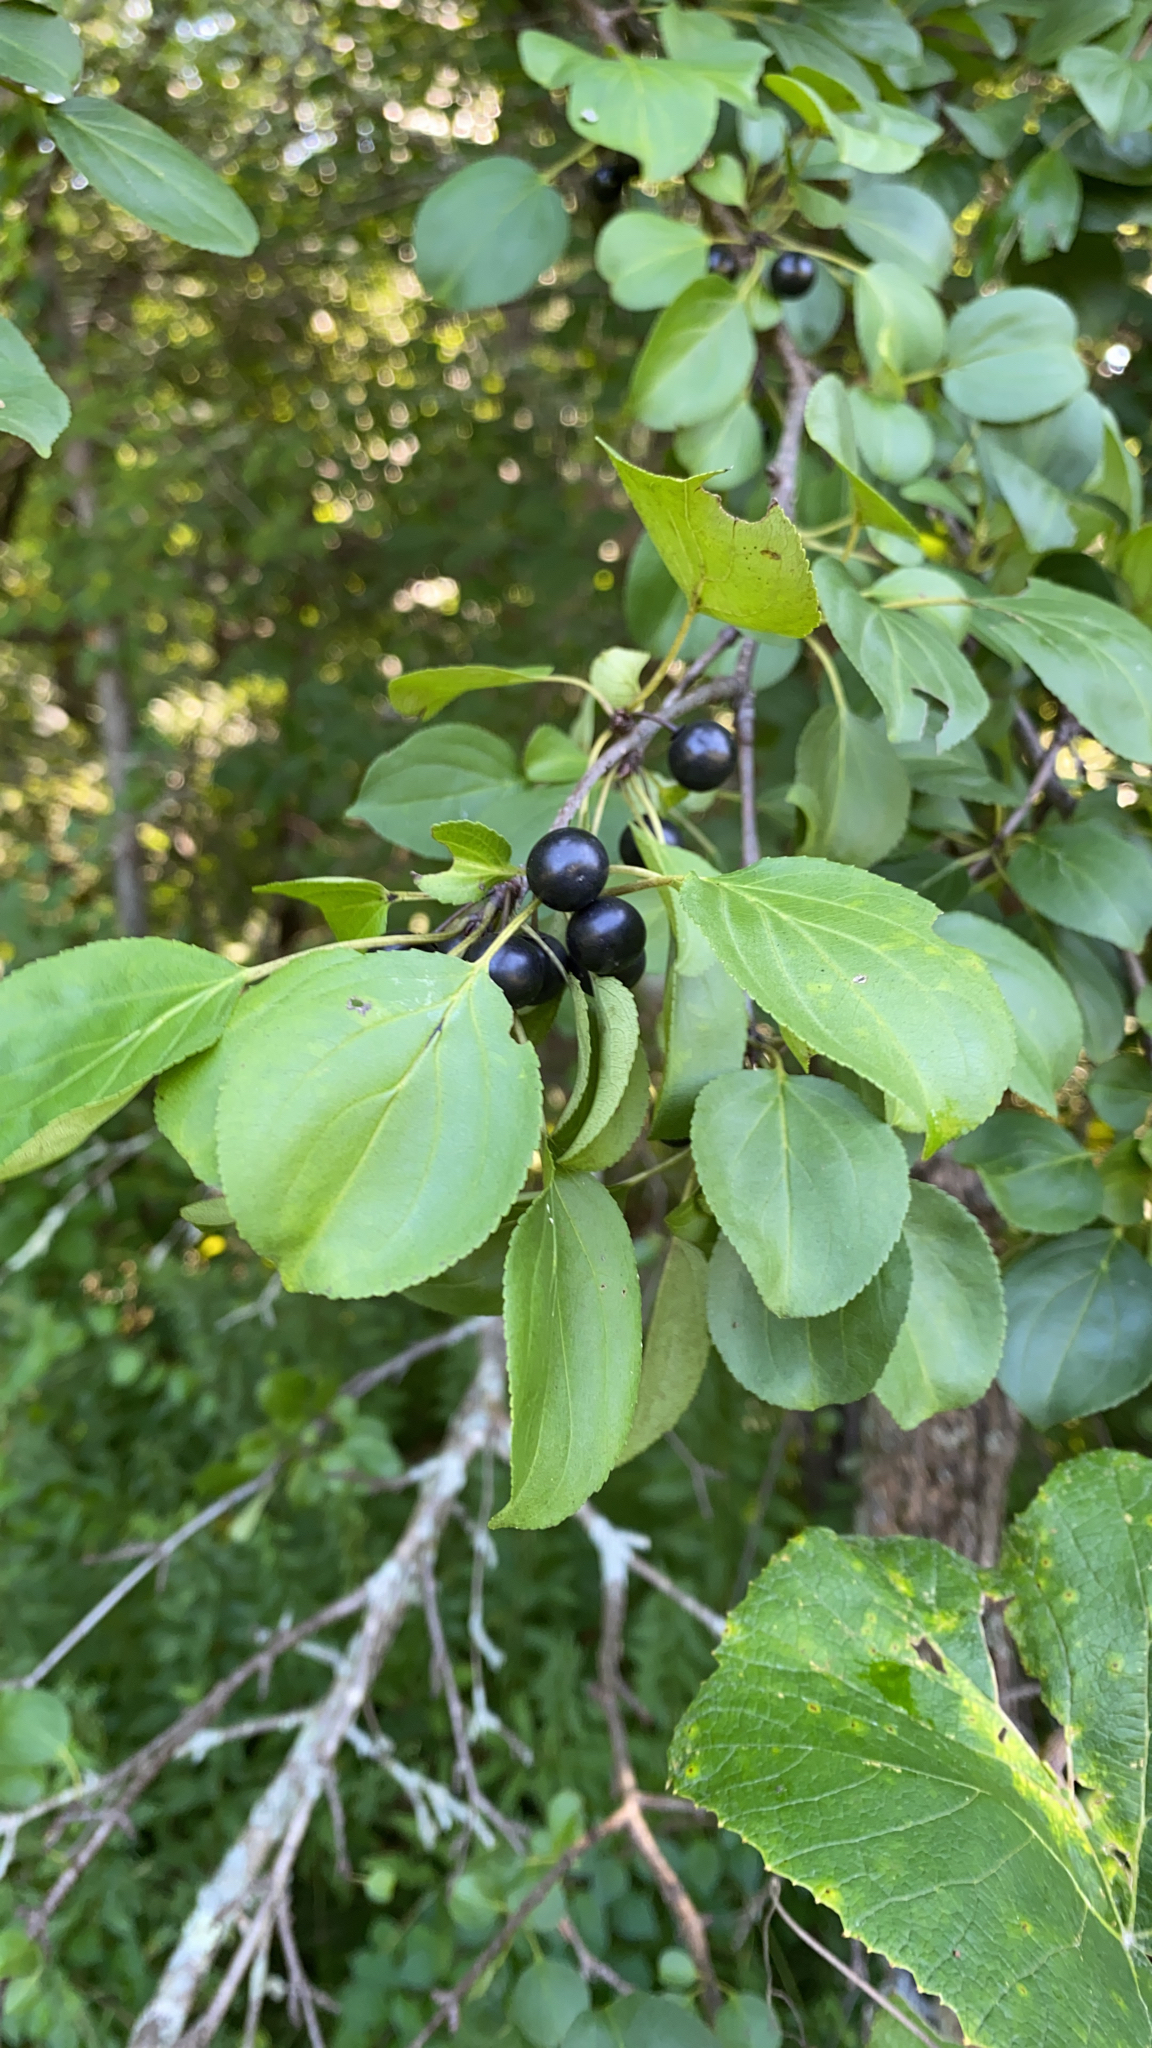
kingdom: Plantae
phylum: Tracheophyta
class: Magnoliopsida
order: Rosales
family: Rhamnaceae
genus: Rhamnus
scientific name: Rhamnus cathartica
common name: Common buckthorn
